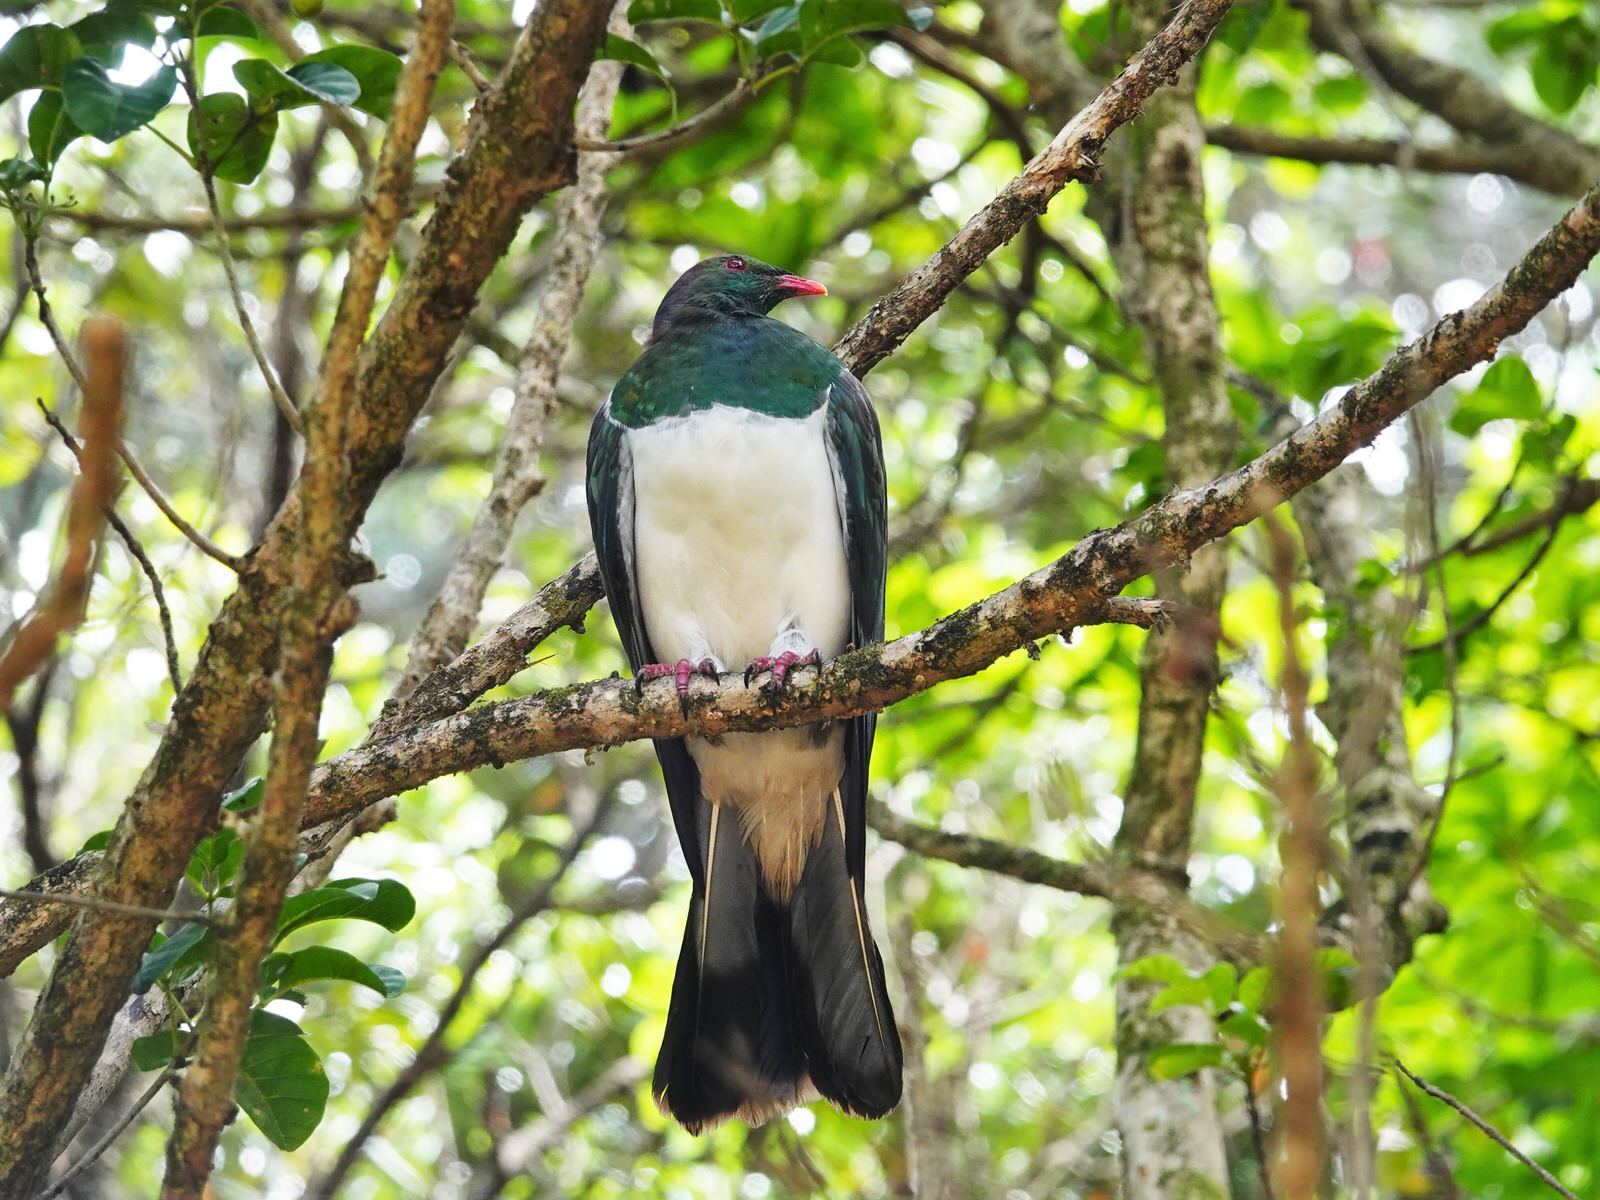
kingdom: Animalia
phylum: Chordata
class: Aves
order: Columbiformes
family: Columbidae
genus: Hemiphaga
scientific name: Hemiphaga novaeseelandiae
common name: New zealand pigeon
